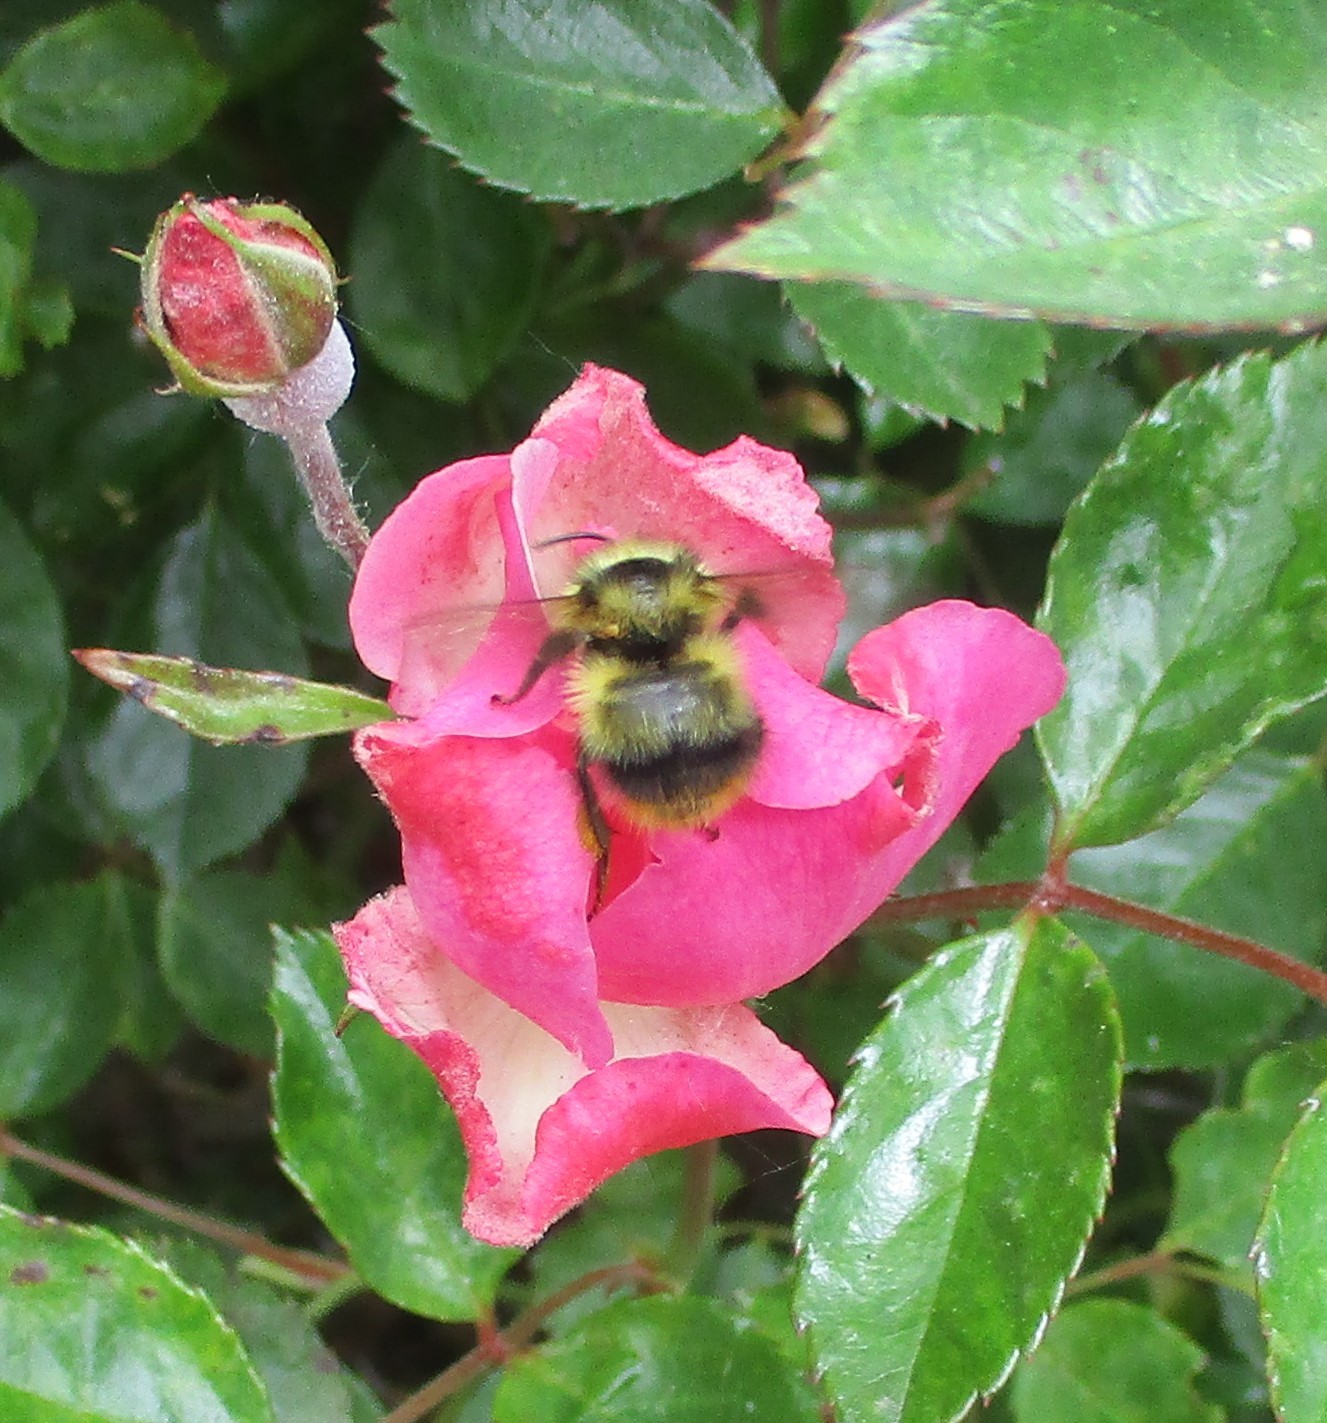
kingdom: Animalia
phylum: Arthropoda
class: Insecta
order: Hymenoptera
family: Apidae
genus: Bombus
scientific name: Bombus mixtus
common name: Fuzzy-horned bumble bee
